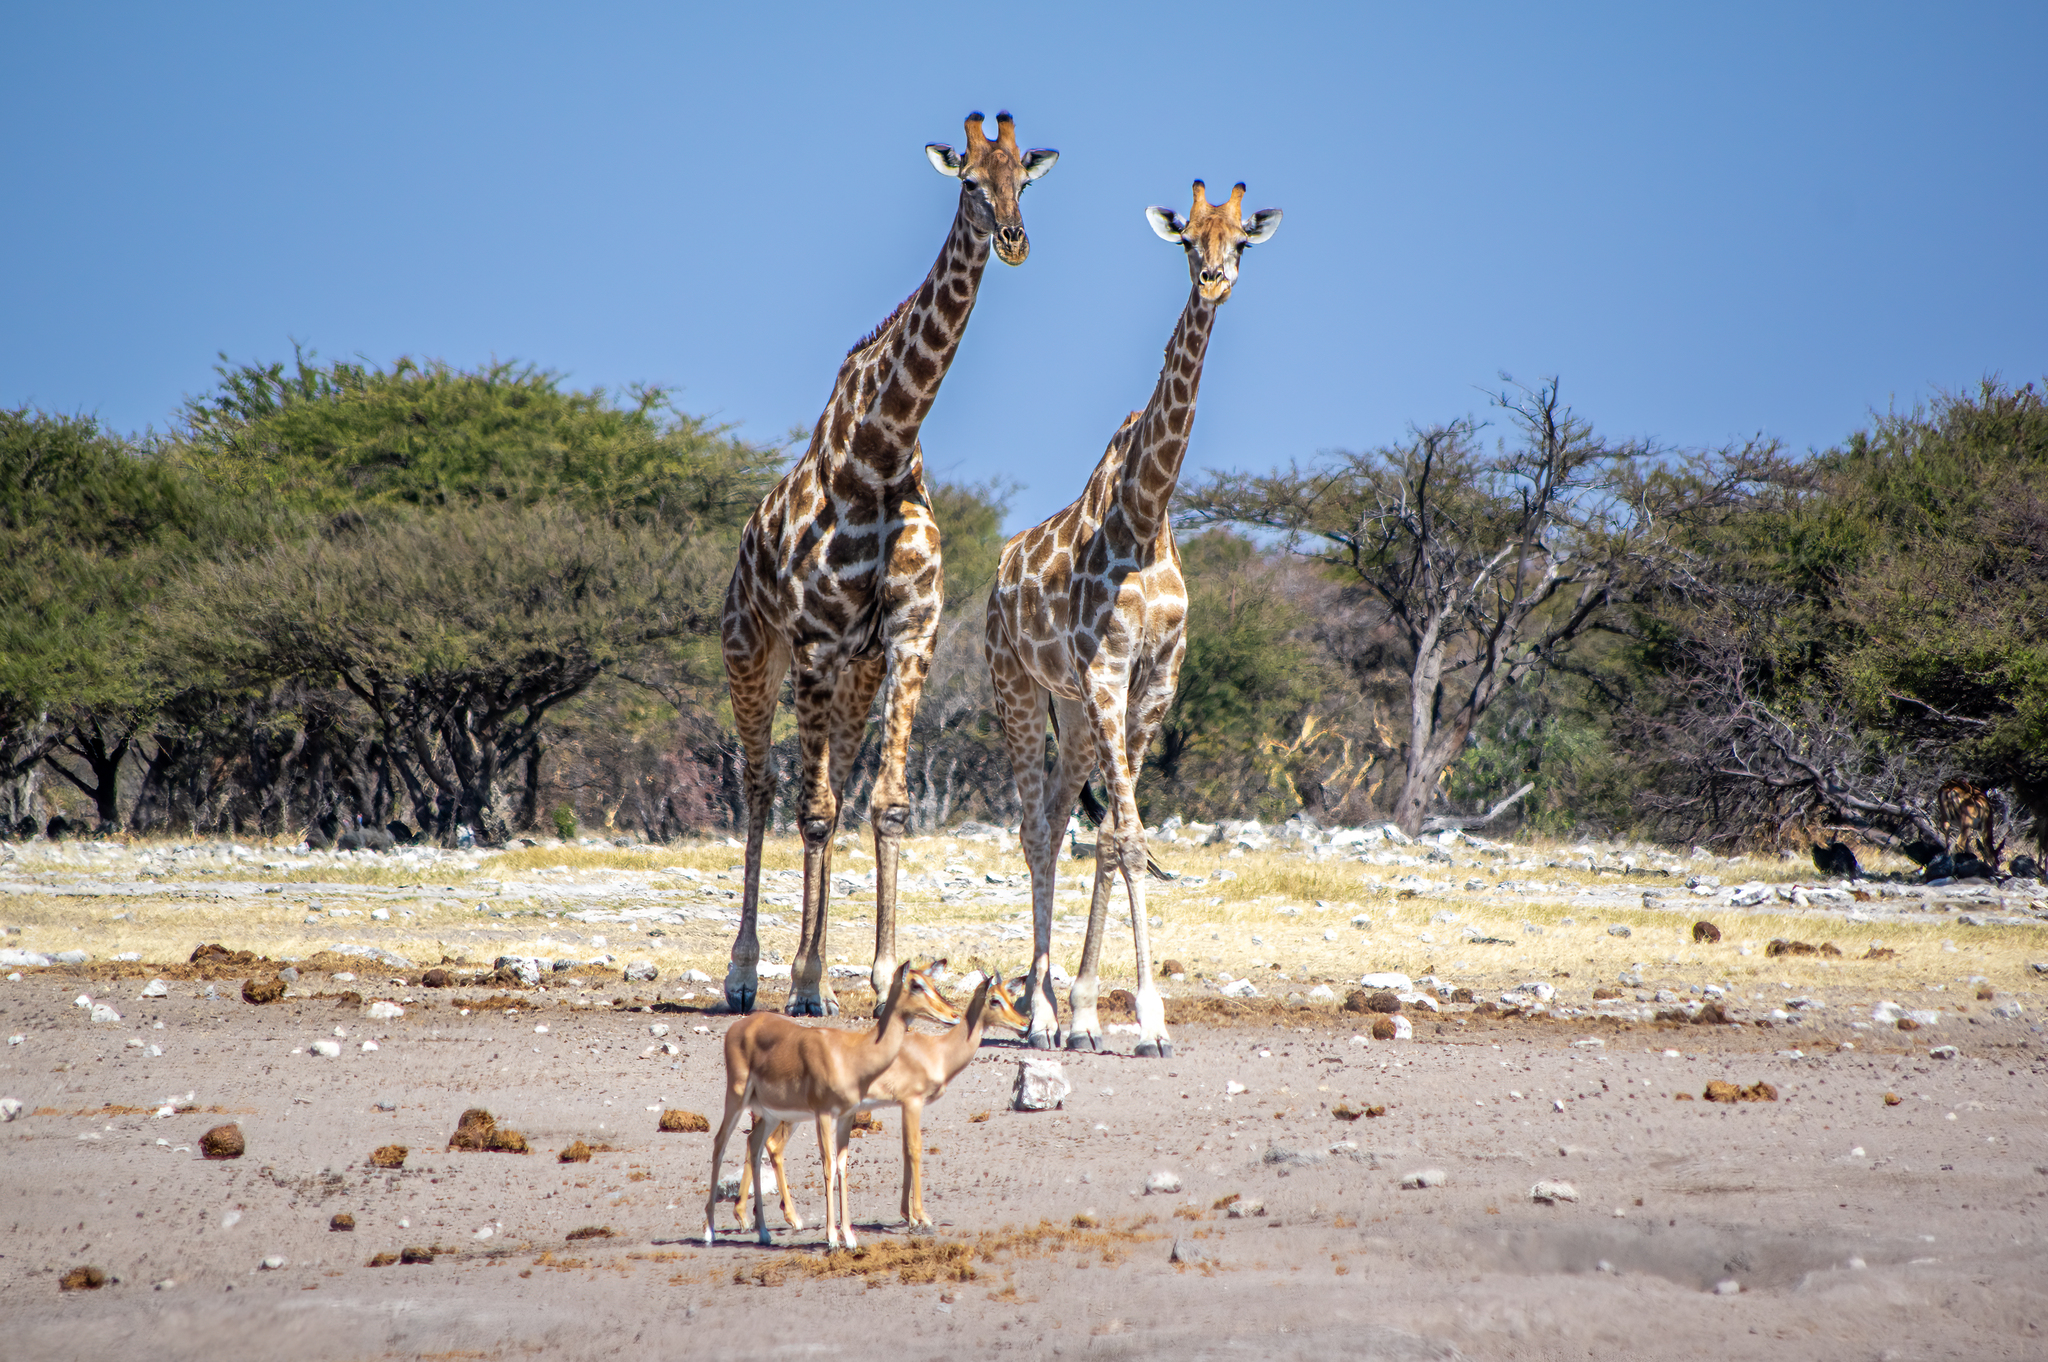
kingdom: Animalia
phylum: Chordata
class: Mammalia
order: Artiodactyla
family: Giraffidae
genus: Giraffa
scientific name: Giraffa giraffa
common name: Southern giraffe
